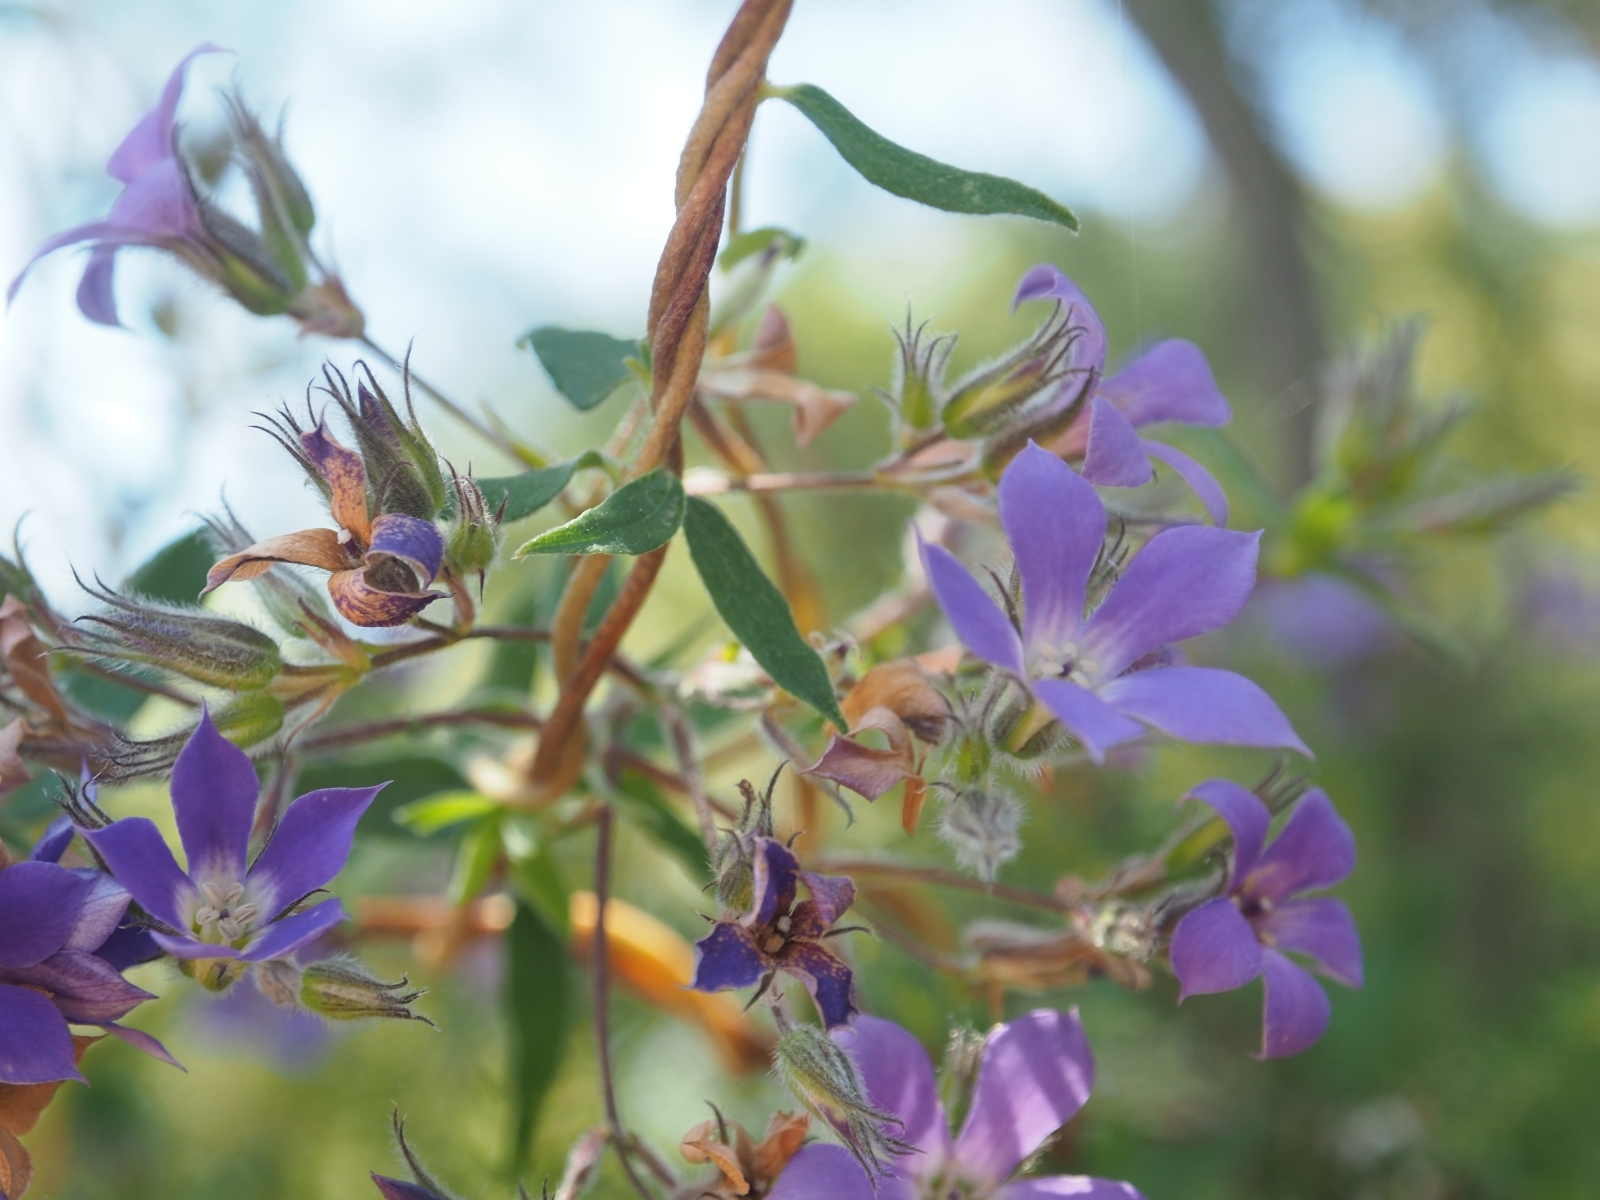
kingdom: Plantae
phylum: Tracheophyta
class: Magnoliopsida
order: Apiales
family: Pittosporaceae
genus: Billardiera
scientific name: Billardiera variifolia
